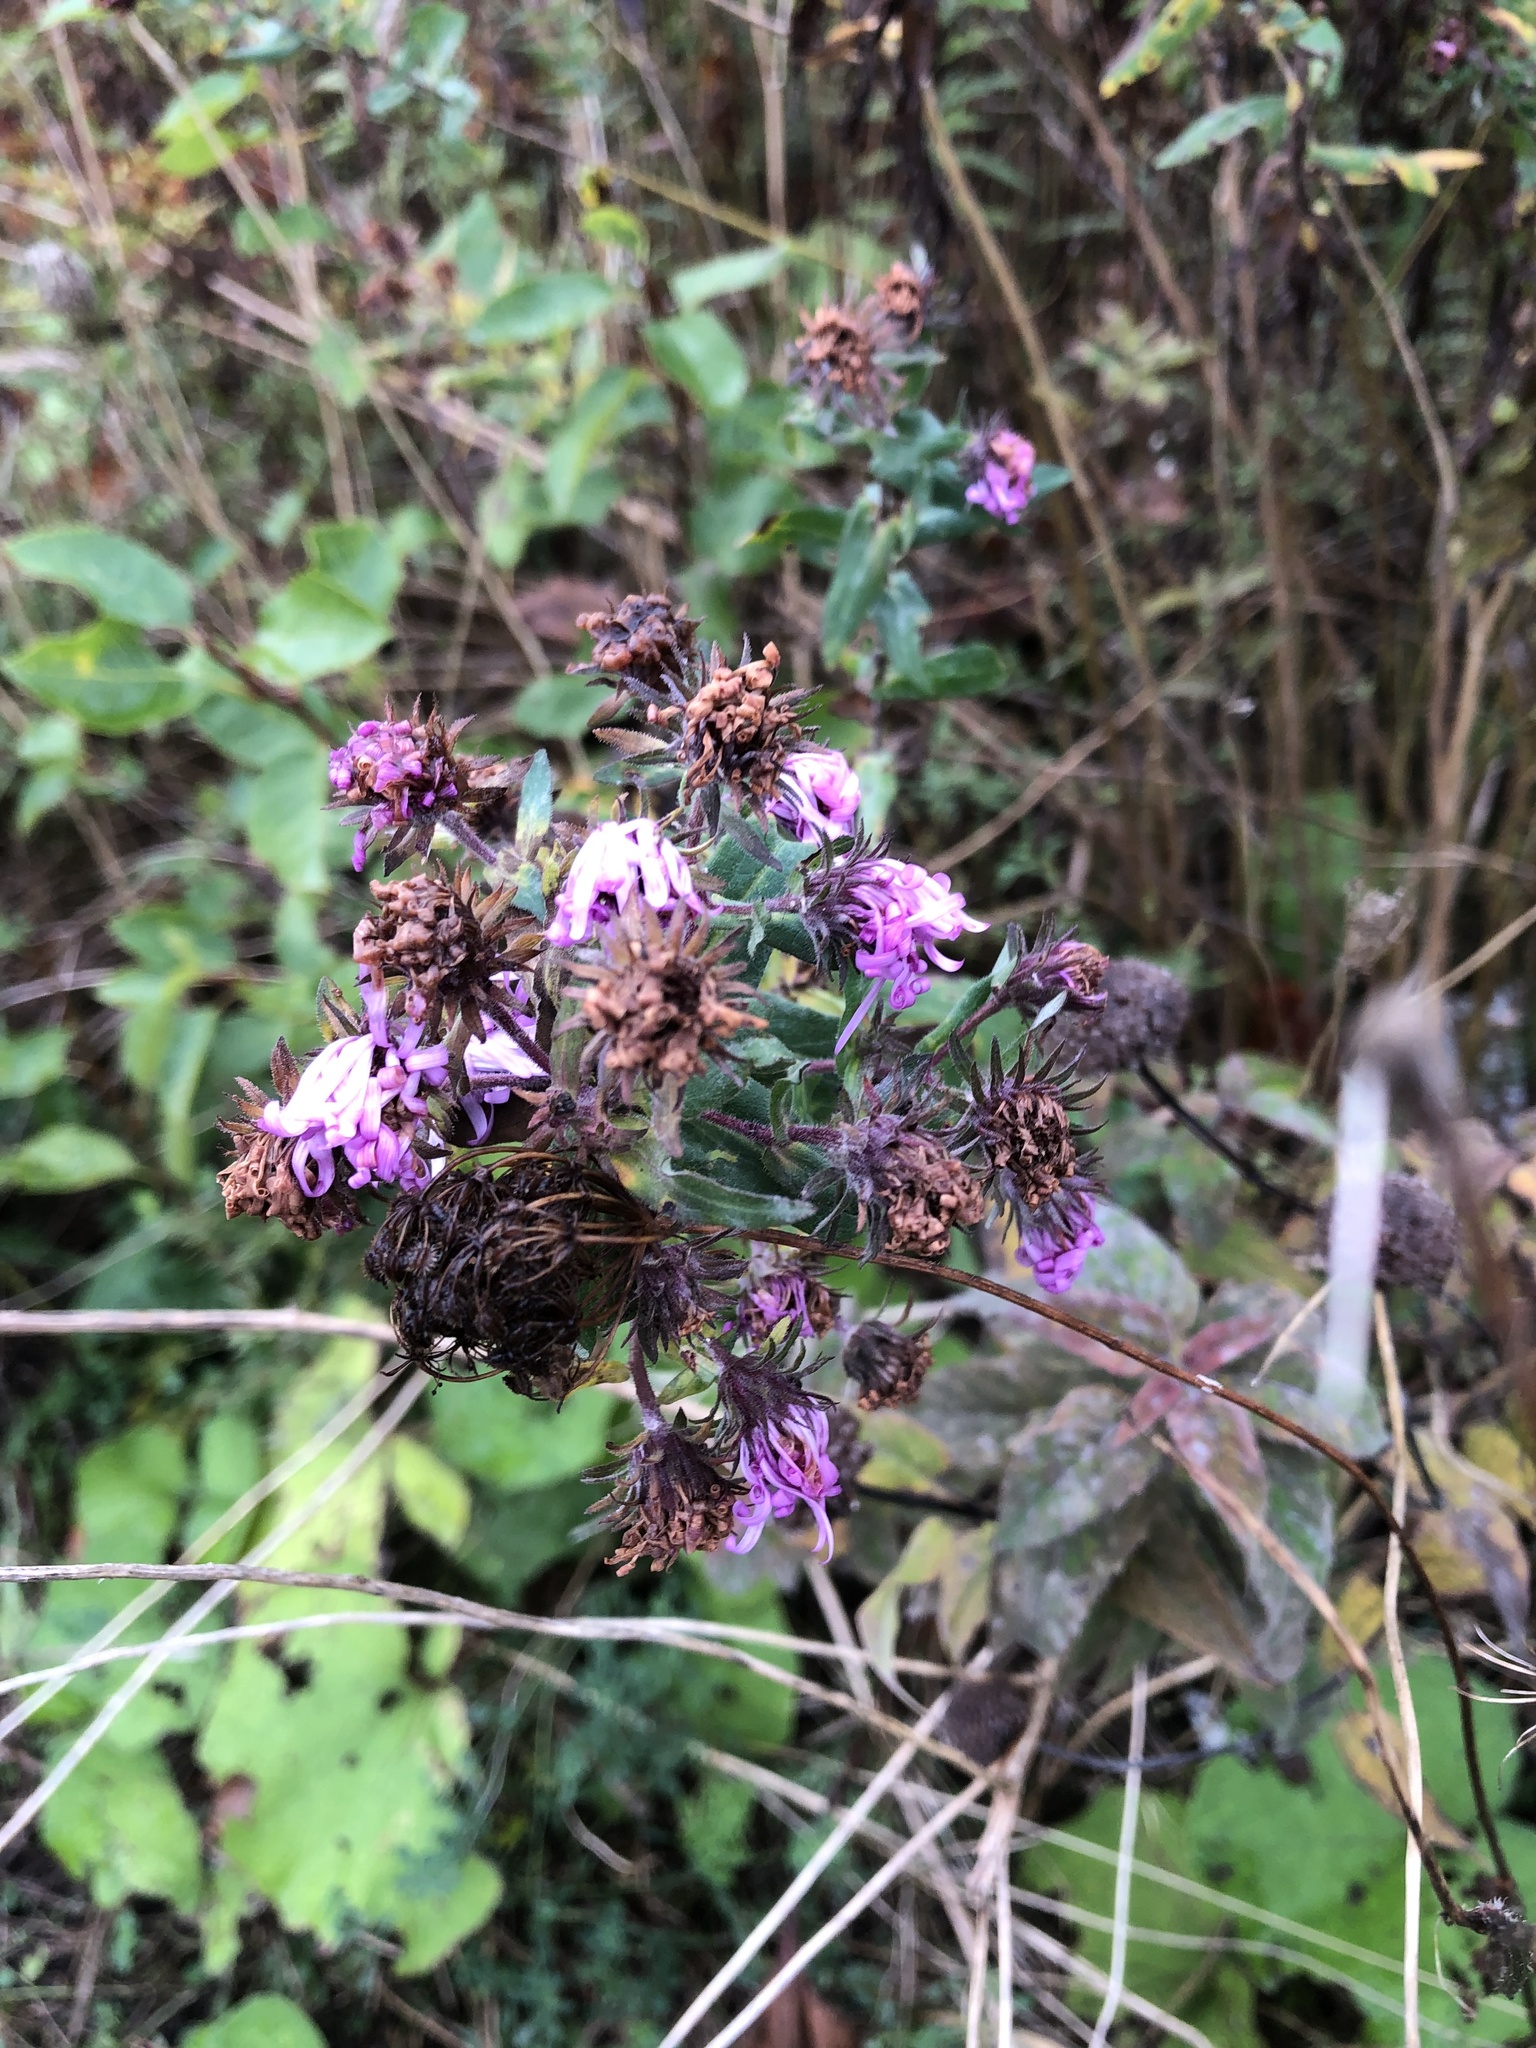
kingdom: Plantae
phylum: Tracheophyta
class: Magnoliopsida
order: Asterales
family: Asteraceae
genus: Symphyotrichum
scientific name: Symphyotrichum novae-angliae
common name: Michaelmas daisy
